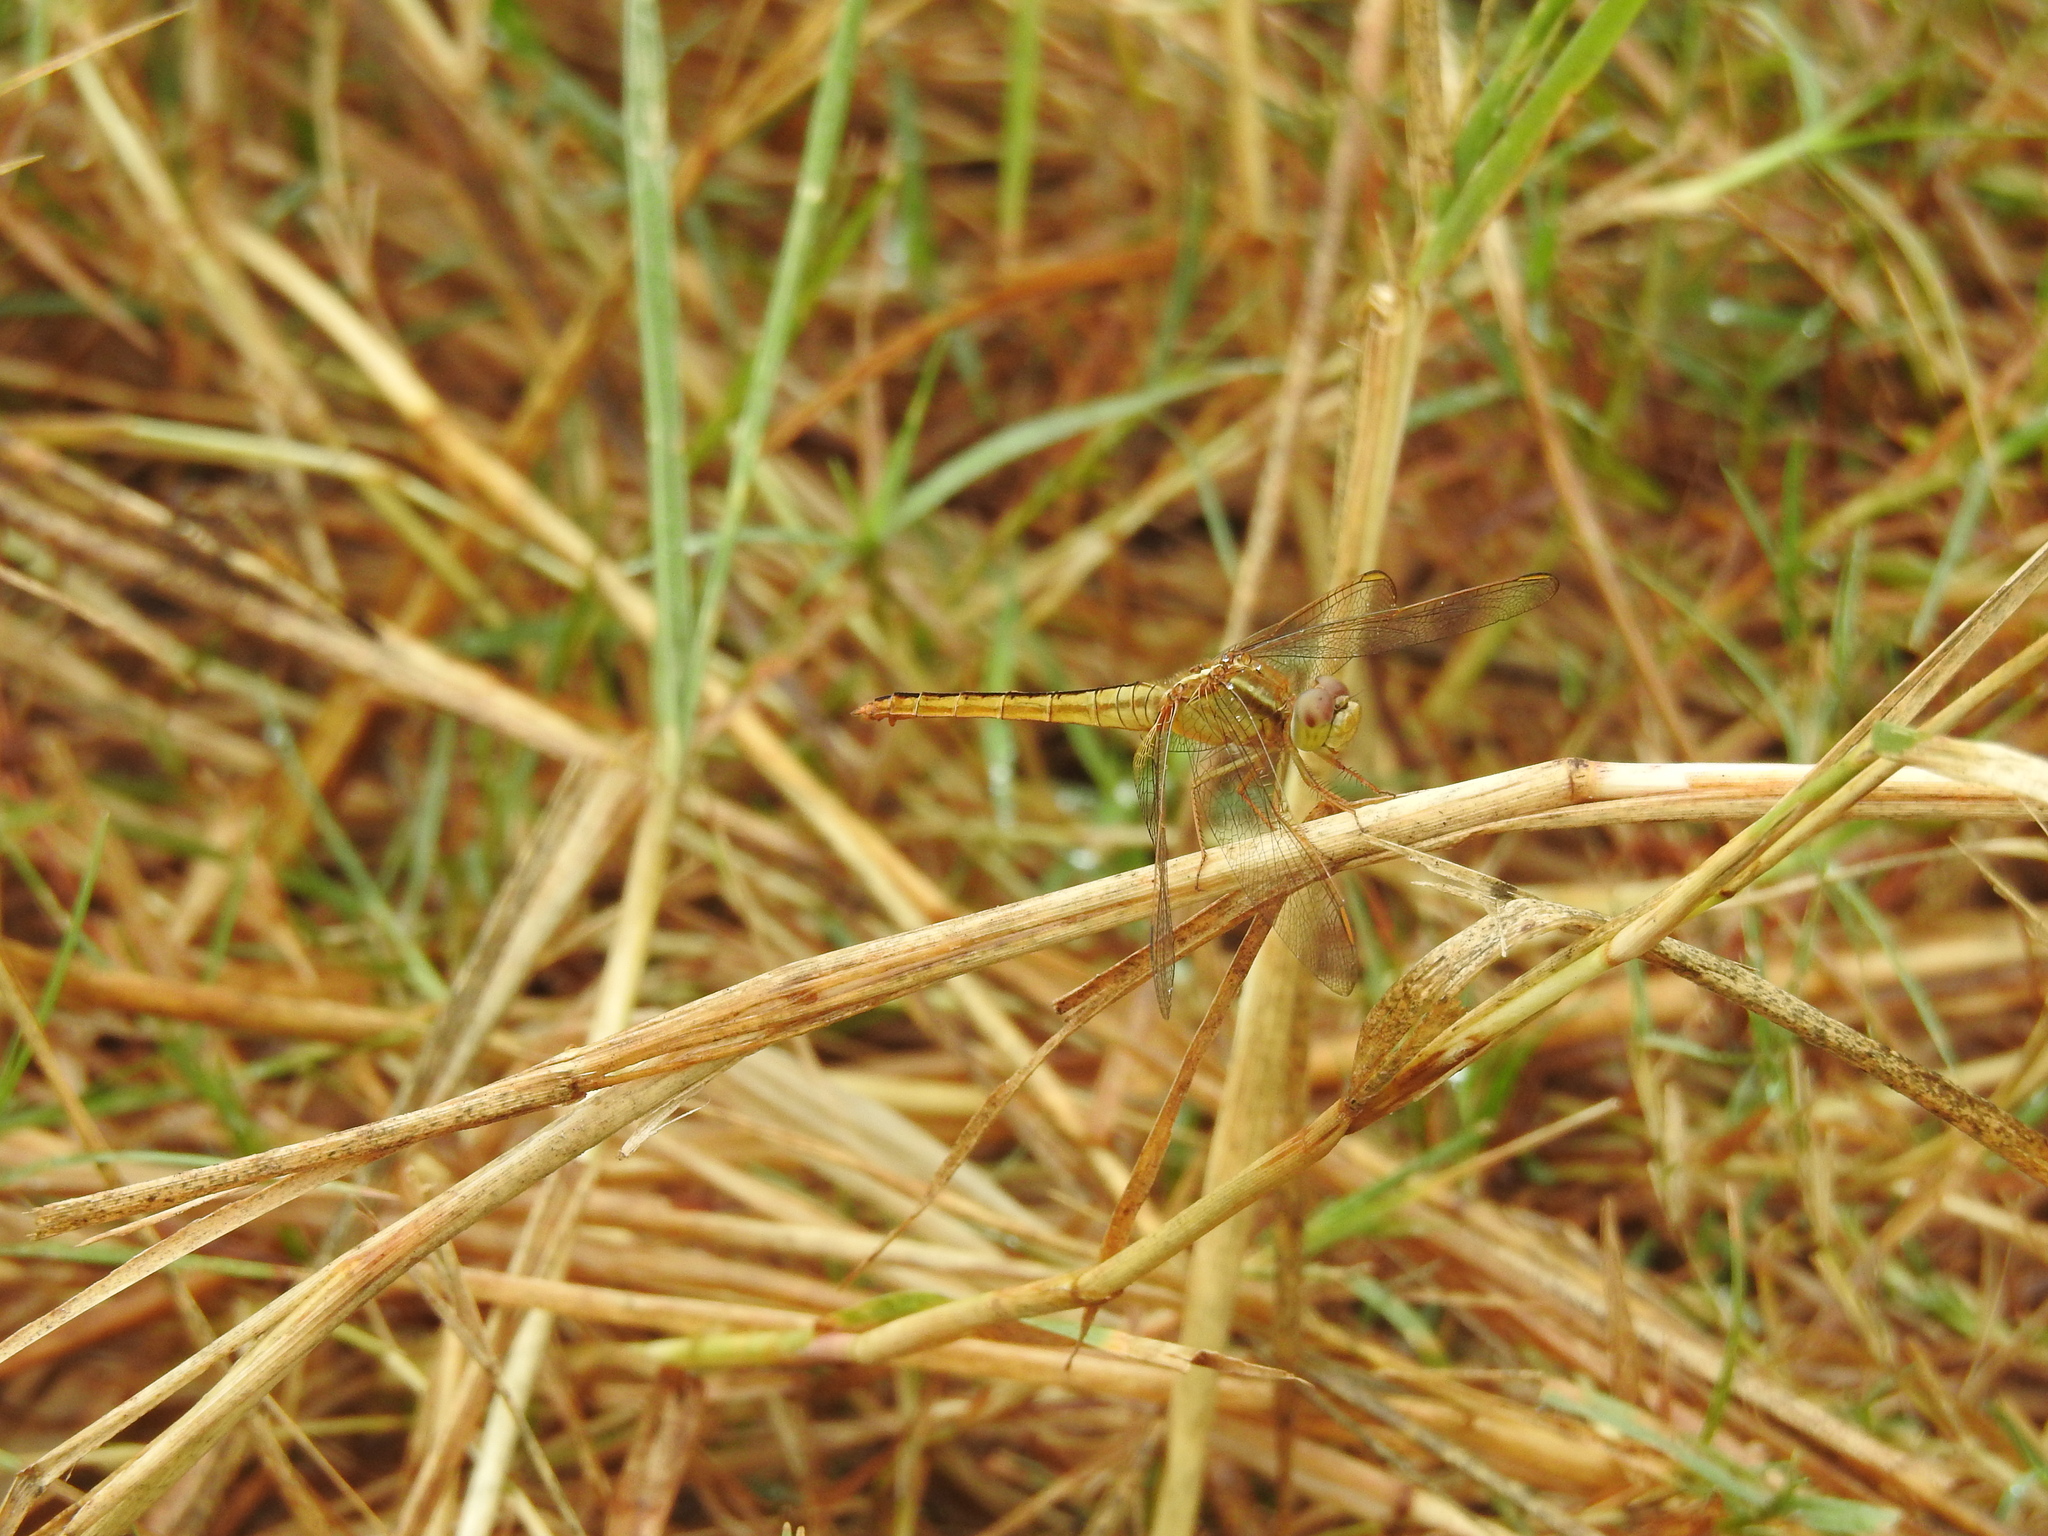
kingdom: Animalia
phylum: Arthropoda
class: Insecta
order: Odonata
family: Libellulidae
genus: Crocothemis
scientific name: Crocothemis servilia
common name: Scarlet skimmer
